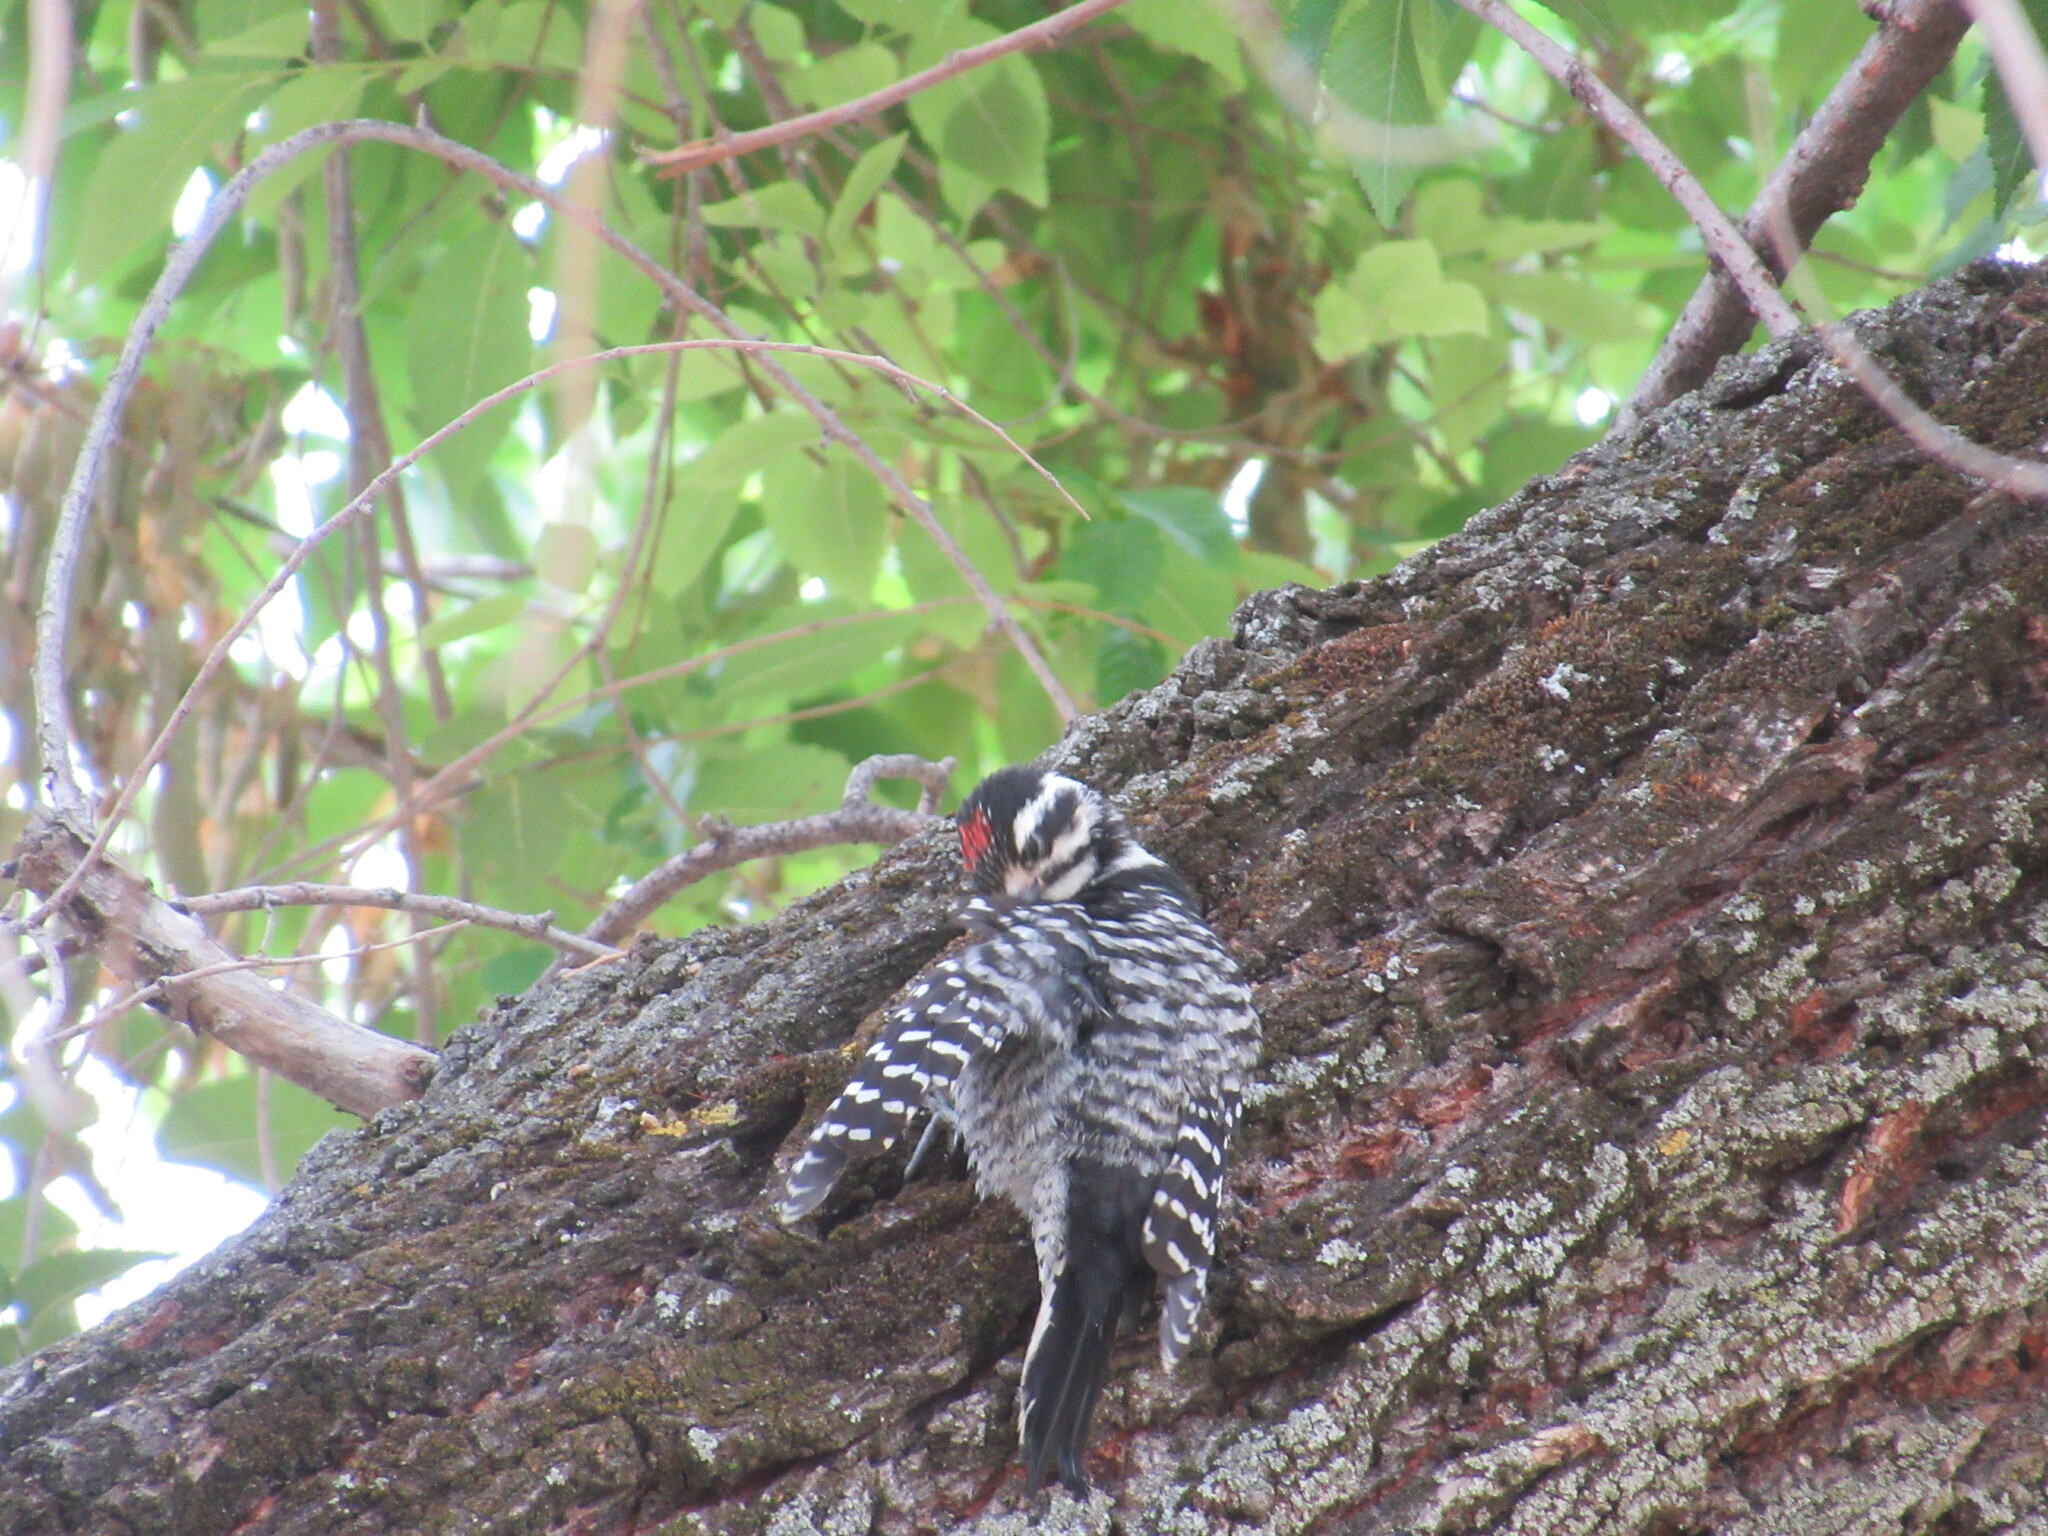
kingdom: Animalia
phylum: Chordata
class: Aves
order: Piciformes
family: Picidae
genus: Dryobates
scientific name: Dryobates nuttallii
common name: Nuttall's woodpecker
